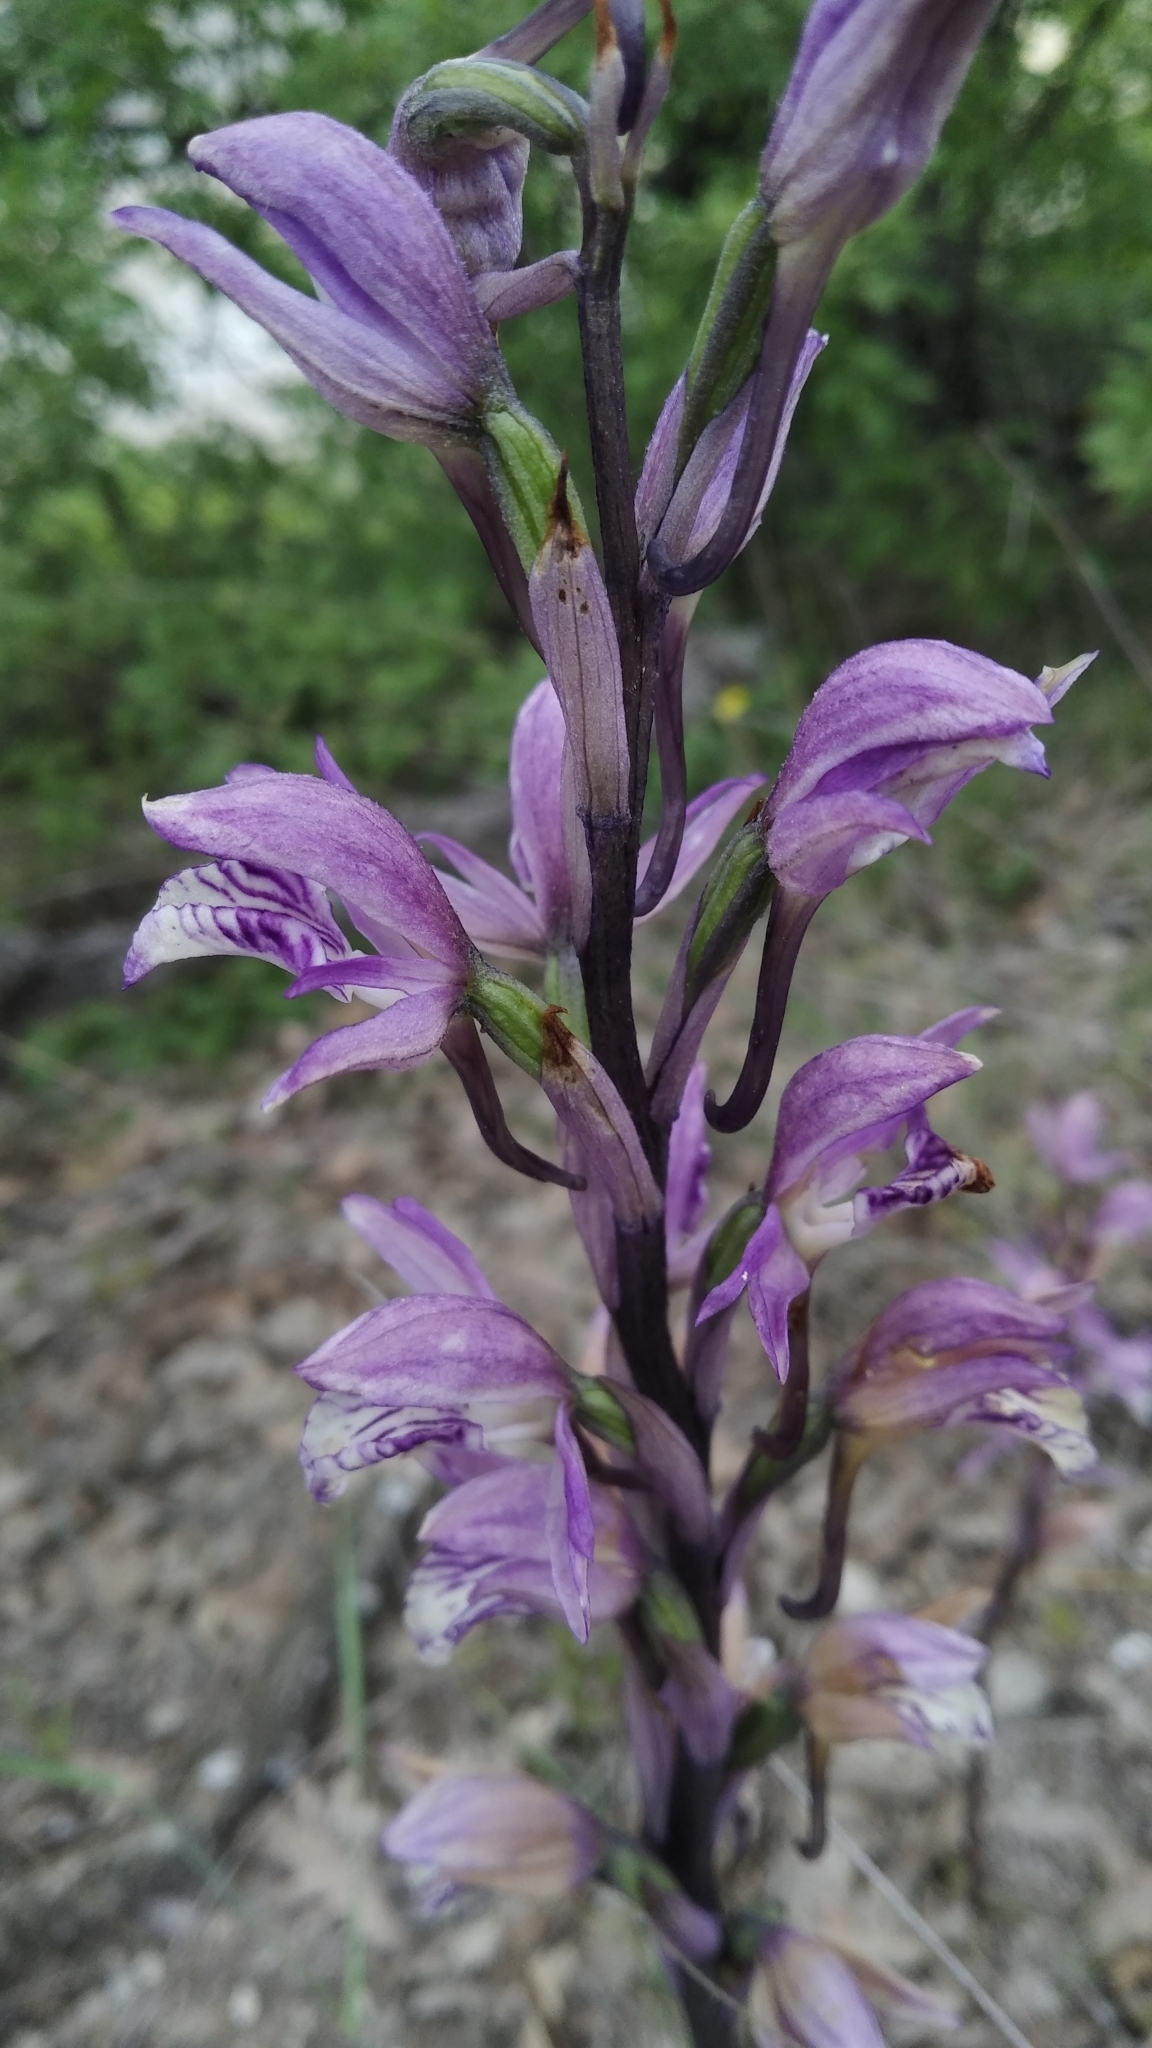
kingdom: Plantae
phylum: Tracheophyta
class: Liliopsida
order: Asparagales
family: Orchidaceae
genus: Limodorum
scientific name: Limodorum abortivum
